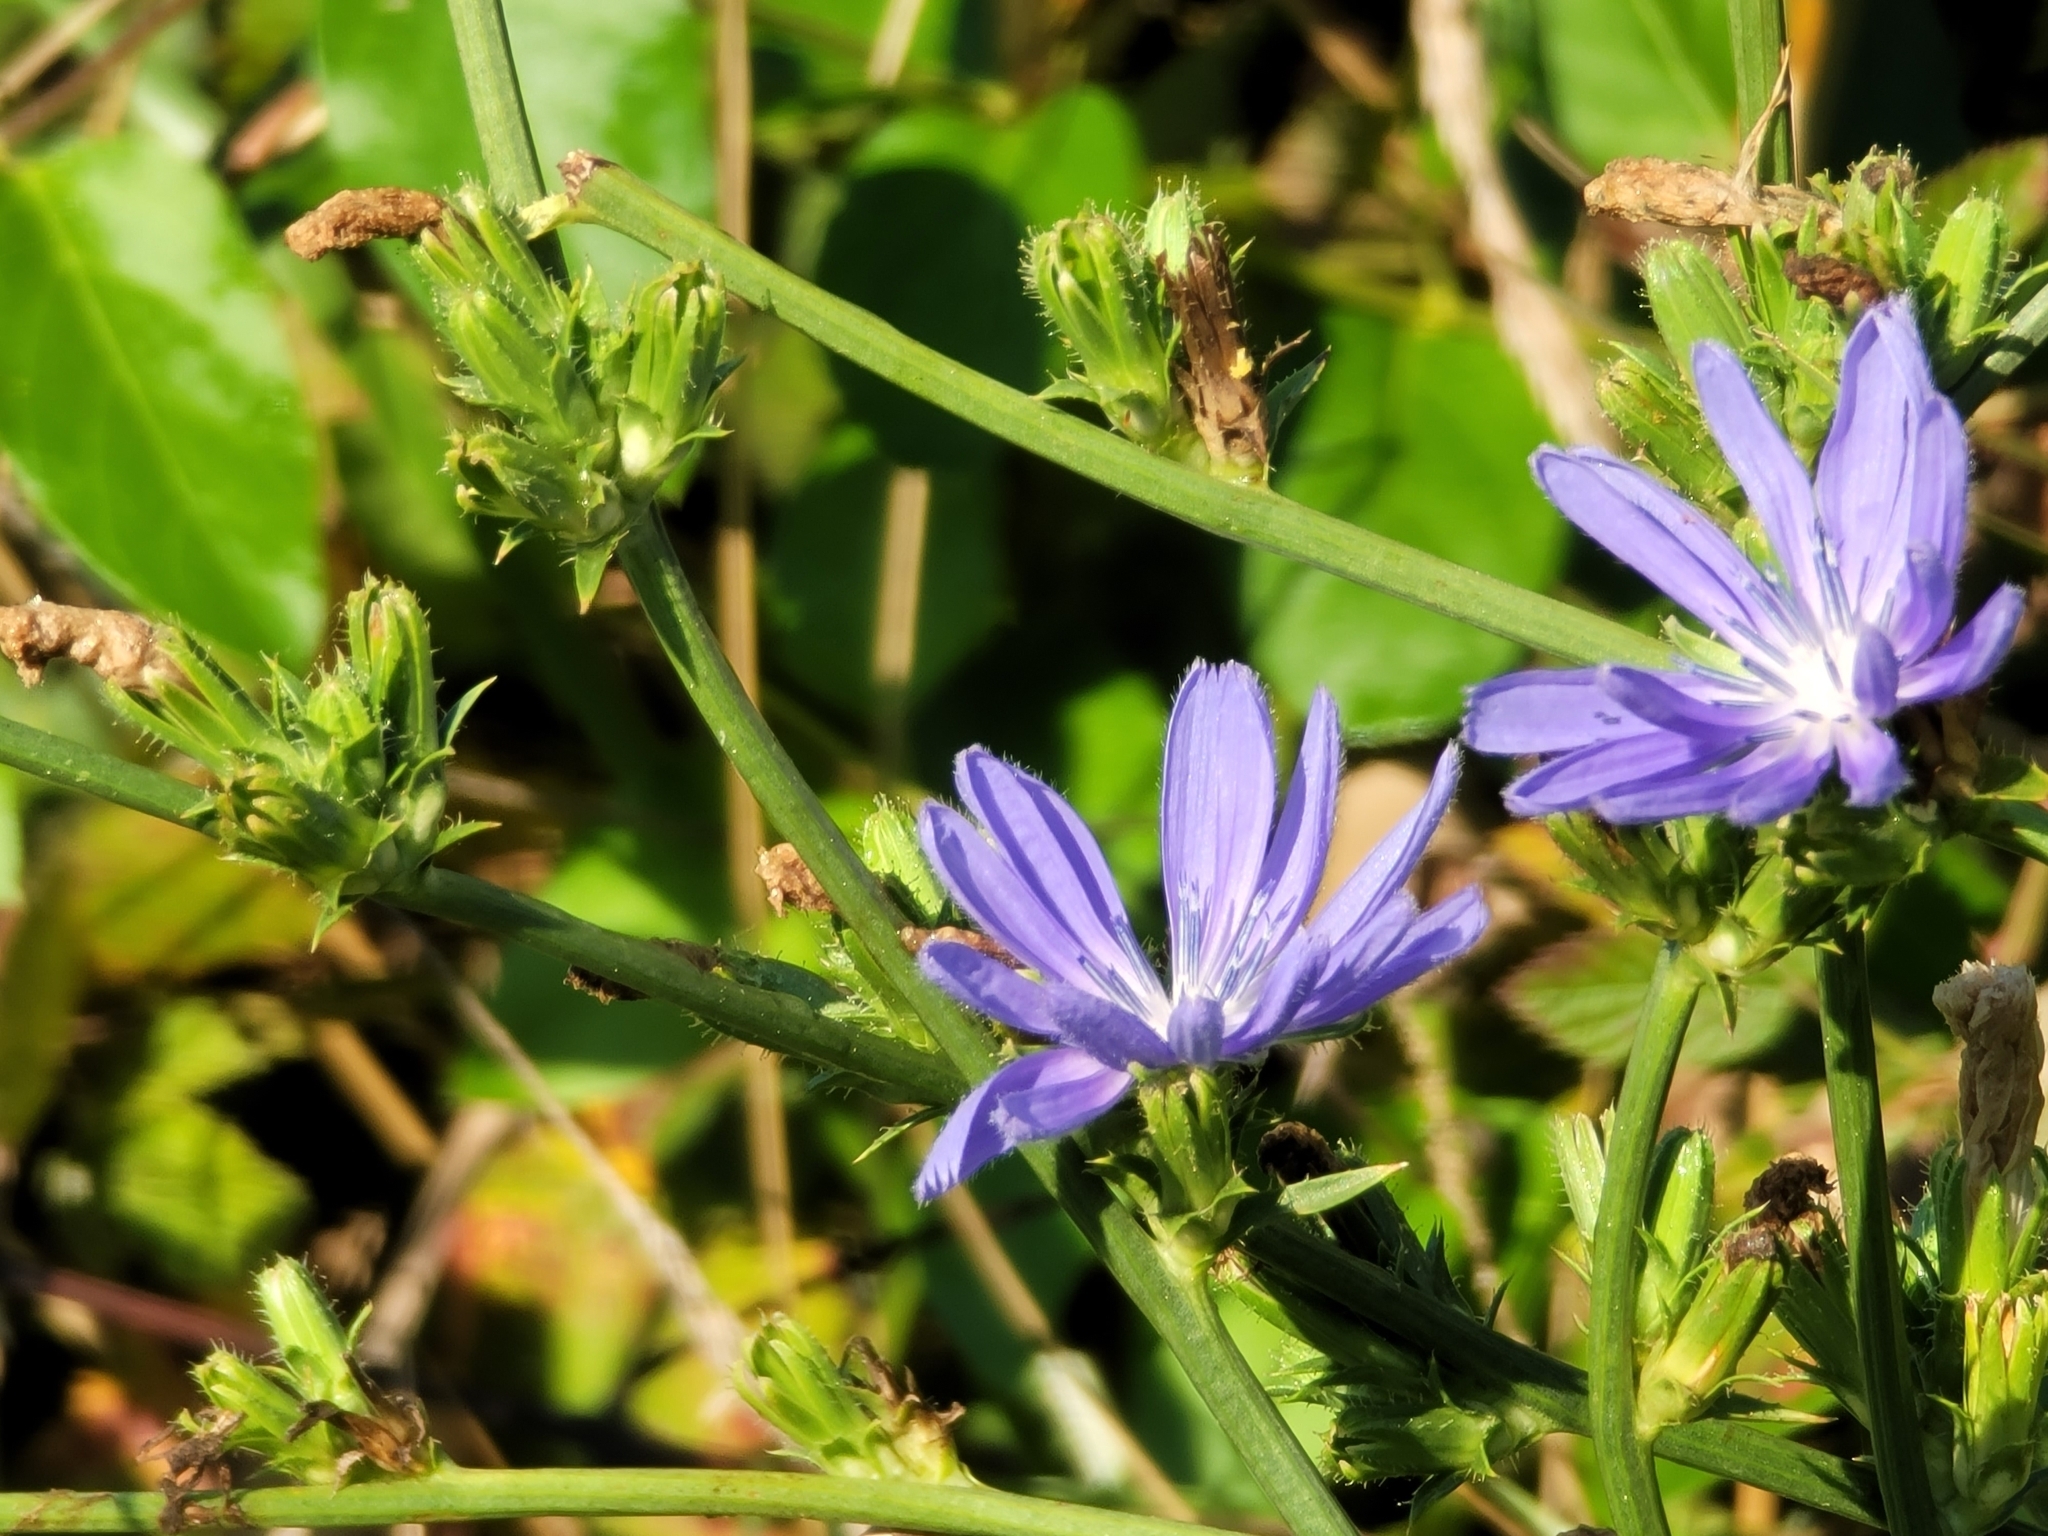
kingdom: Plantae
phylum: Tracheophyta
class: Magnoliopsida
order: Asterales
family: Asteraceae
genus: Cichorium
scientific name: Cichorium intybus
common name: Chicory
